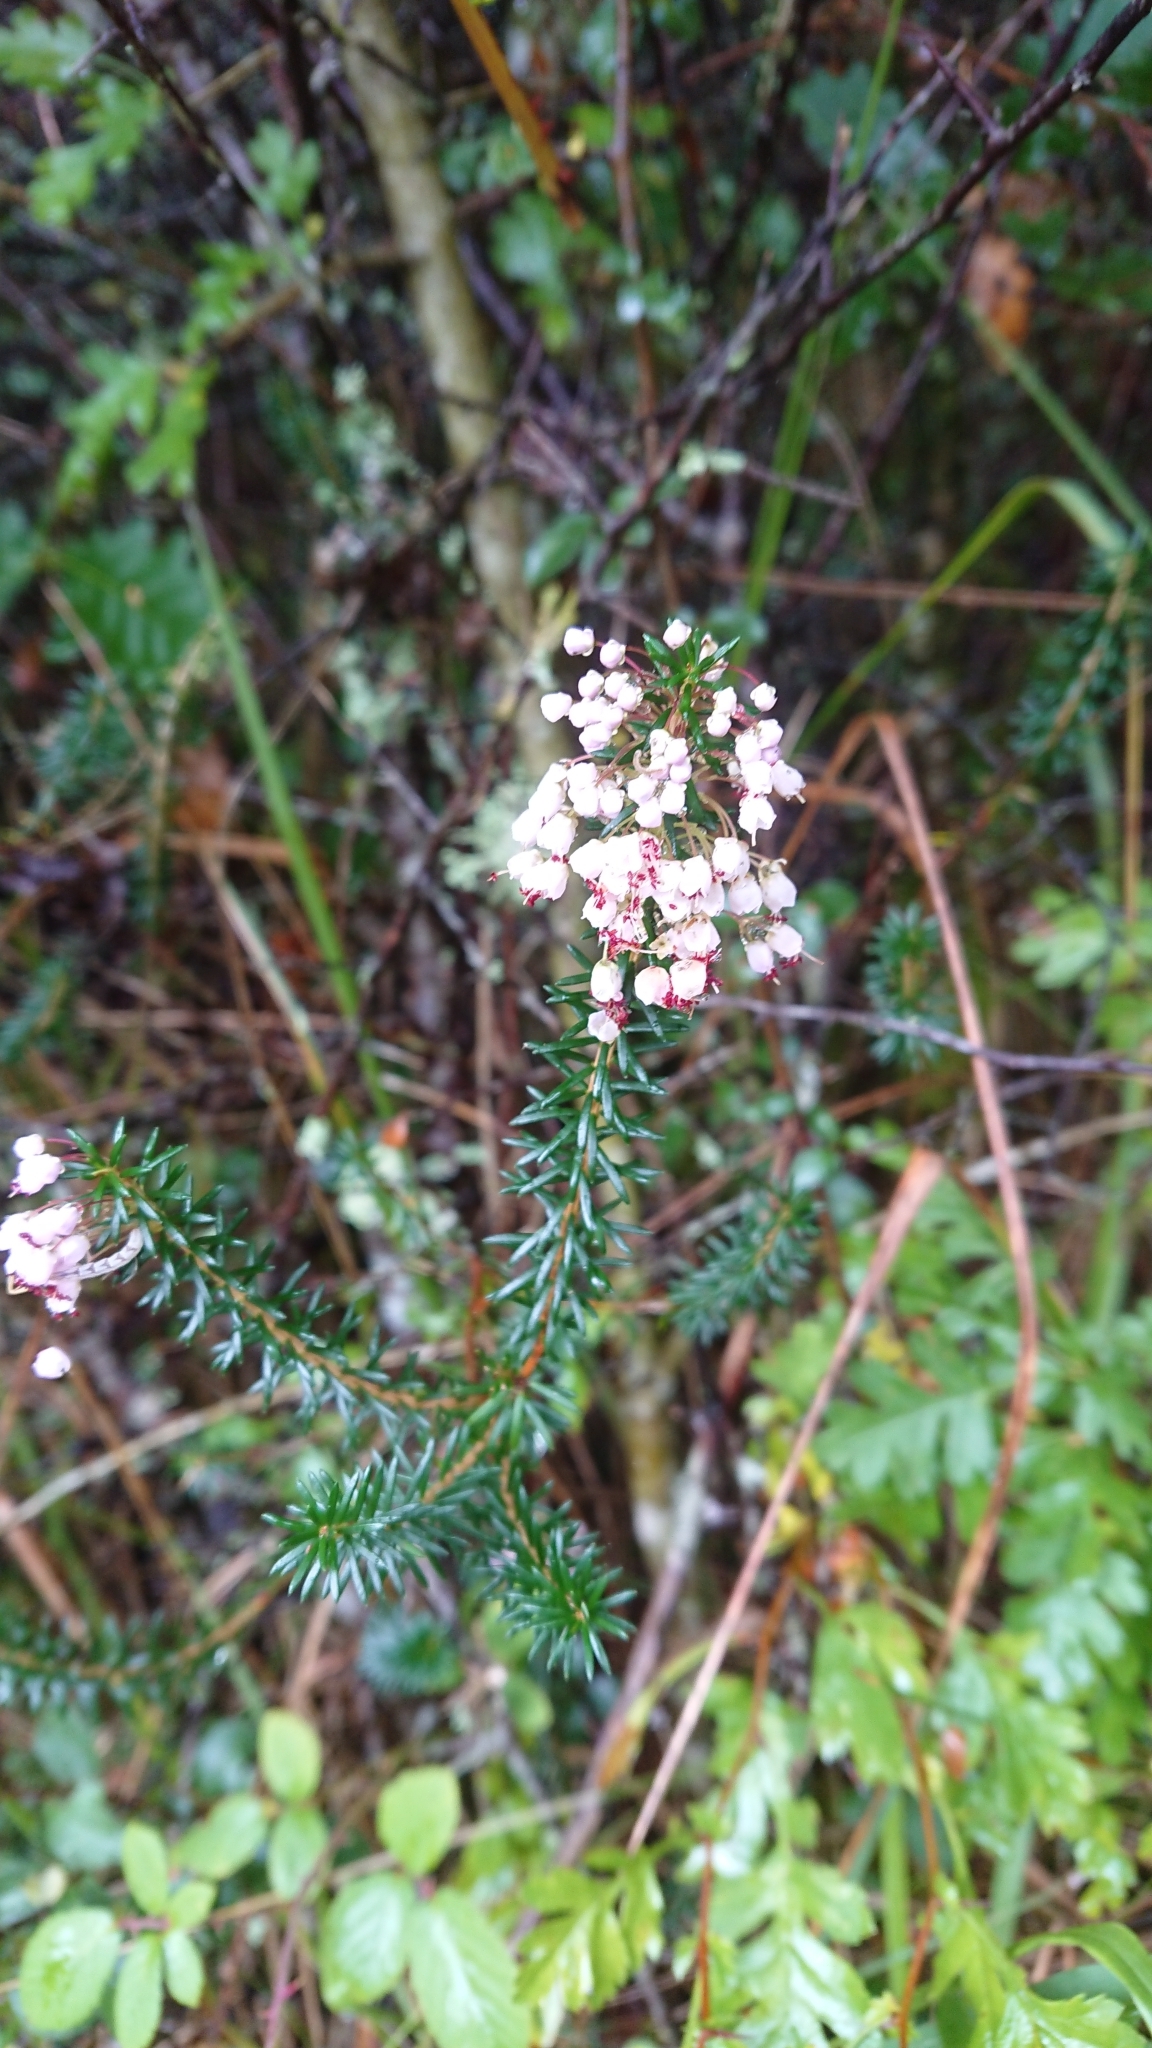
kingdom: Plantae
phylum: Tracheophyta
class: Magnoliopsida
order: Ericales
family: Ericaceae
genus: Erica
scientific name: Erica vagans
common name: Cornish heath
